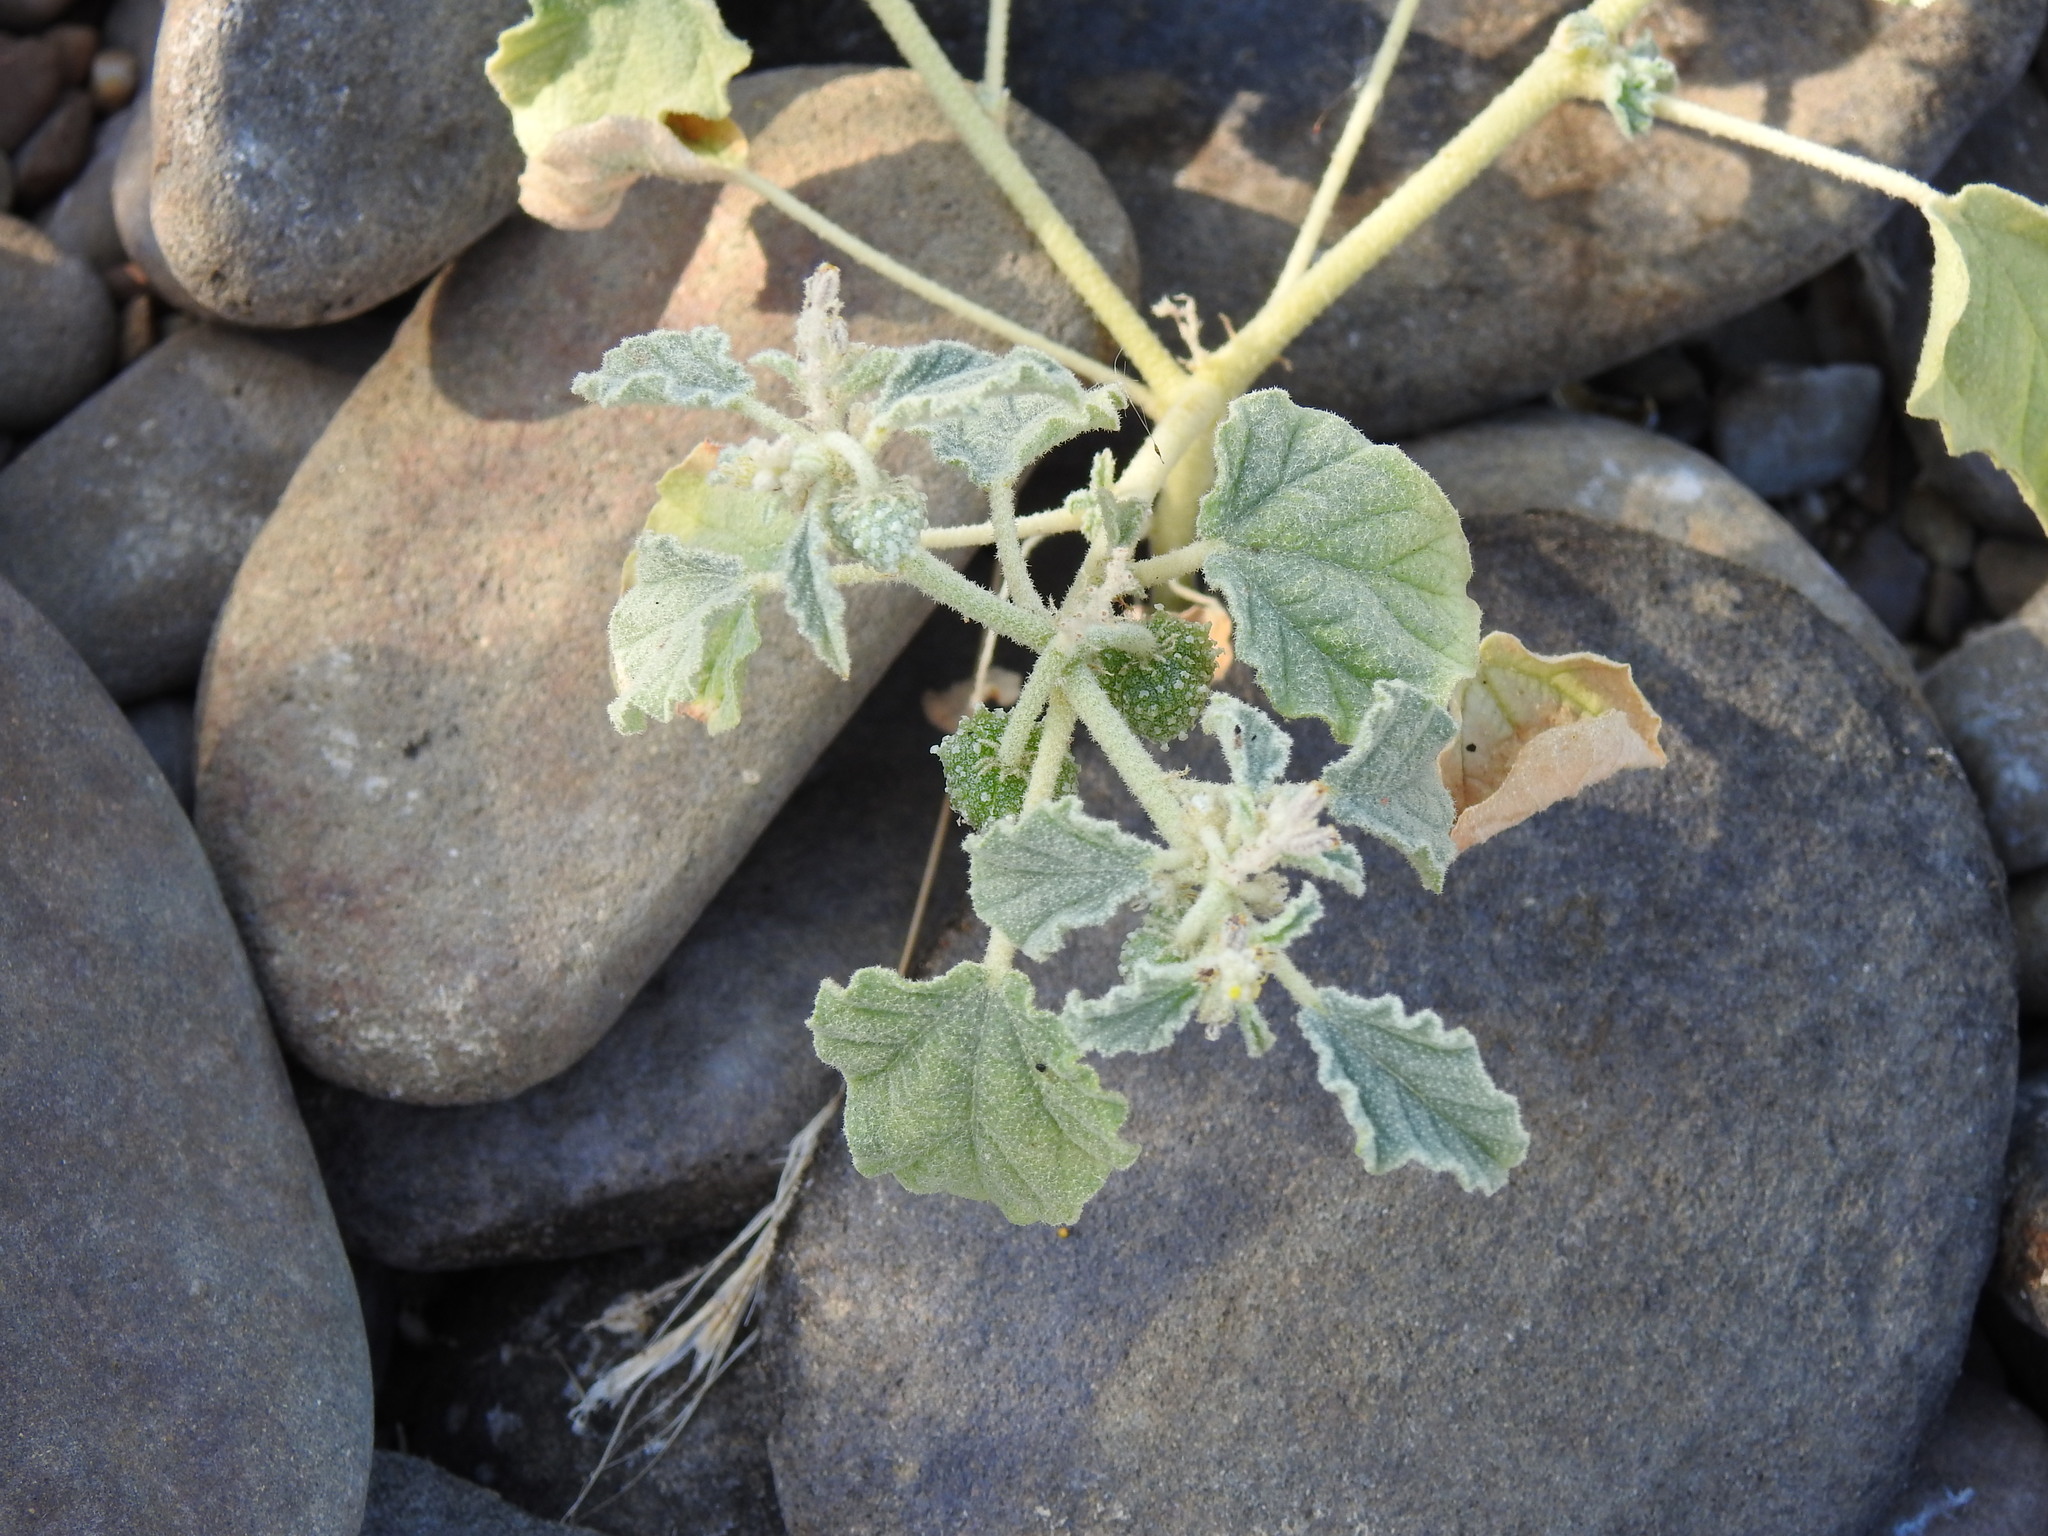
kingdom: Plantae
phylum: Tracheophyta
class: Magnoliopsida
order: Malpighiales
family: Euphorbiaceae
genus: Chrozophora
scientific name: Chrozophora tinctoria
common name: Dyer's litmus
